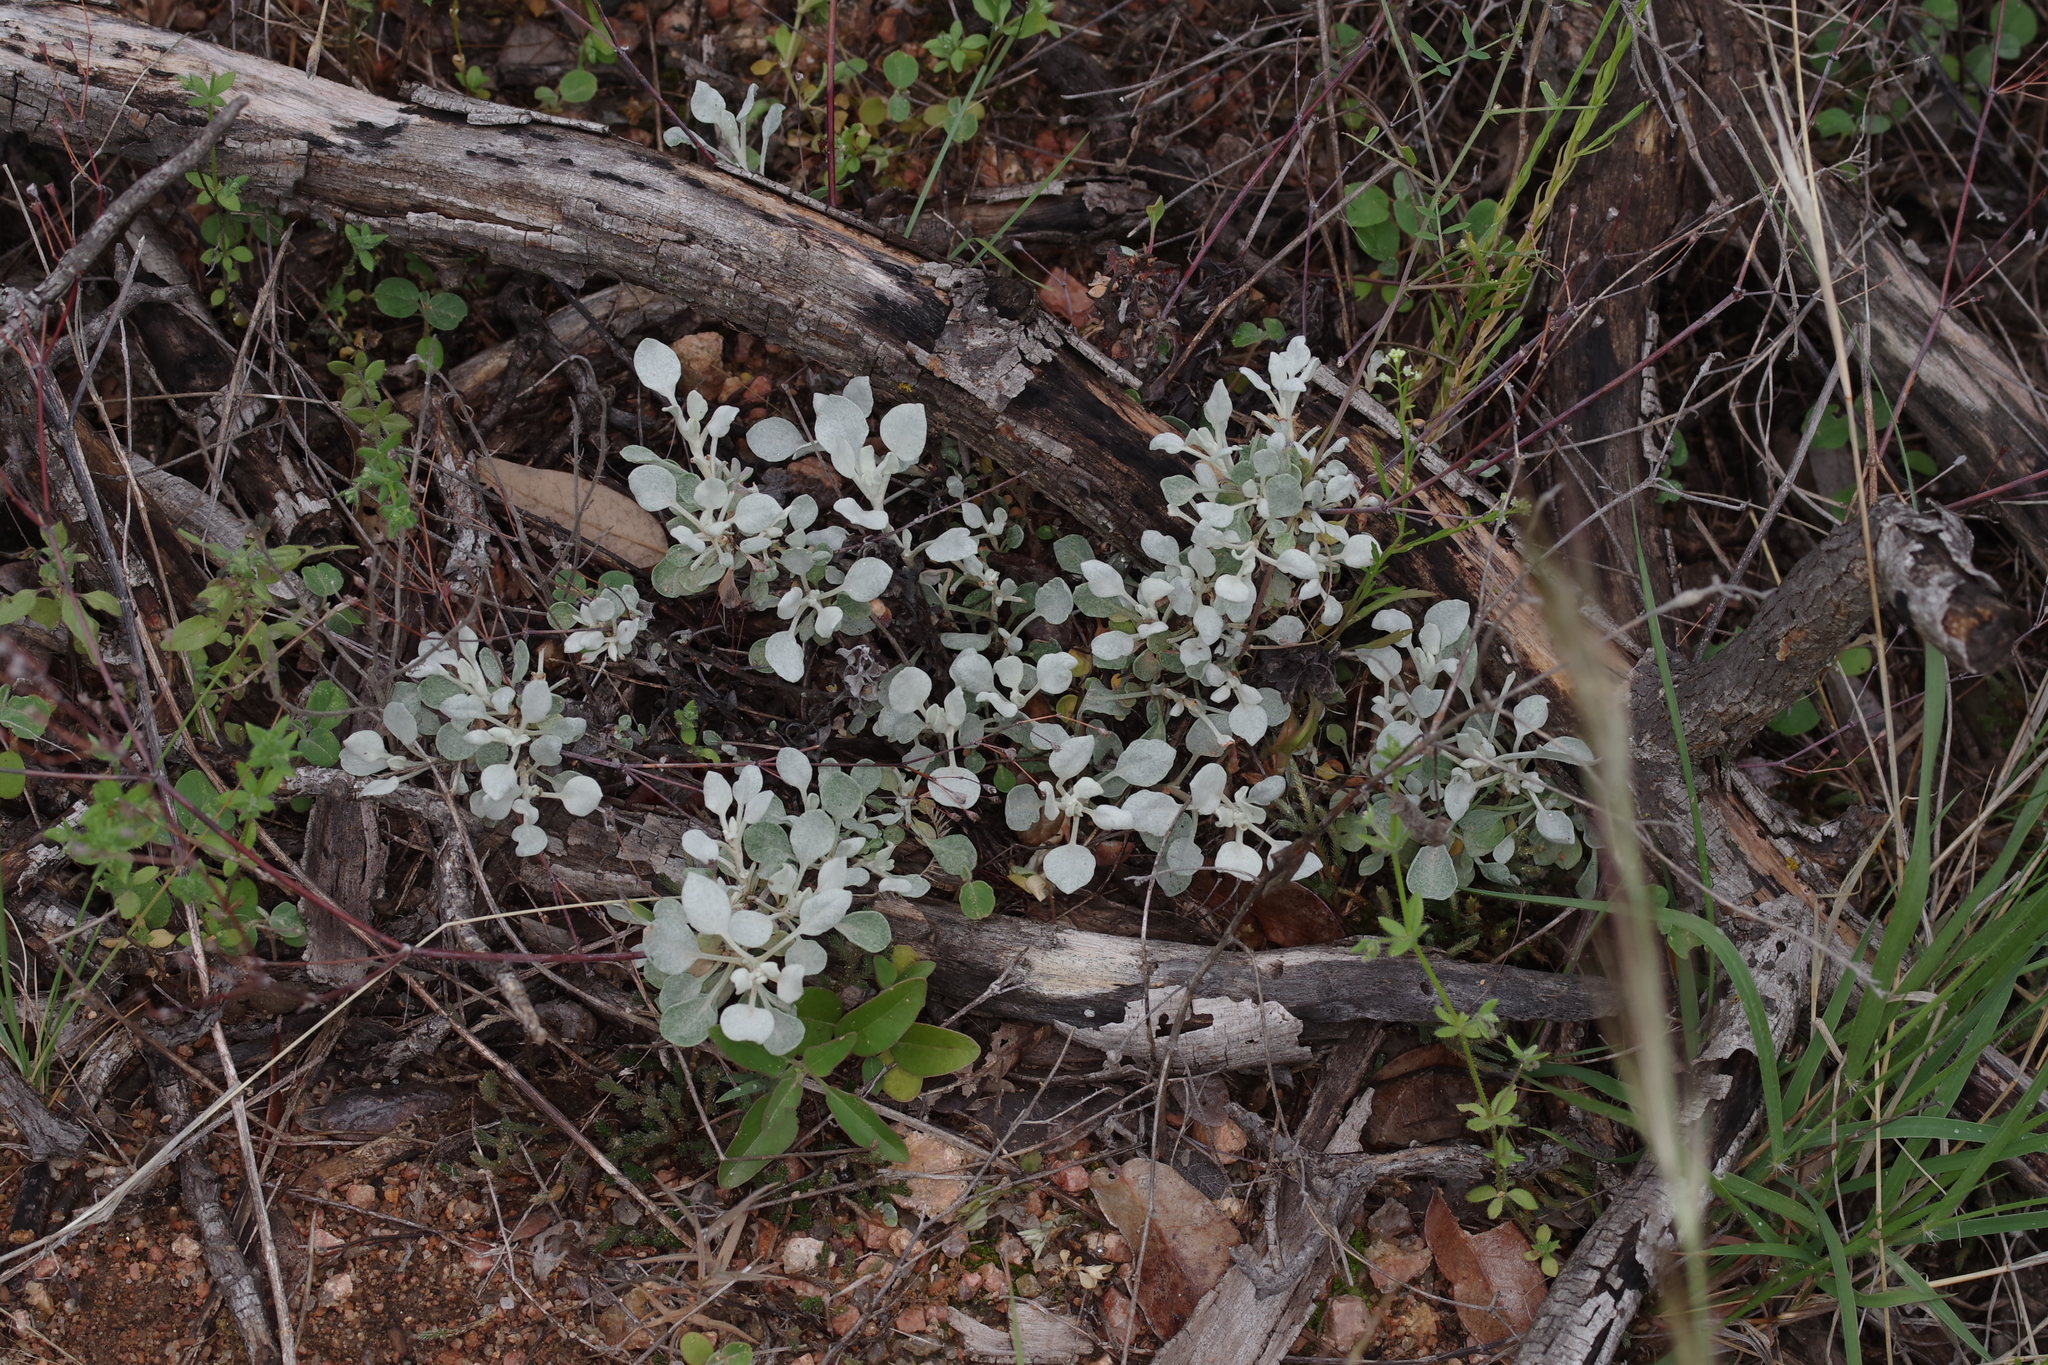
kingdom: Plantae
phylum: Tracheophyta
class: Magnoliopsida
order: Caryophyllales
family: Polygonaceae
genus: Eriogonum
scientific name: Eriogonum graniticum
